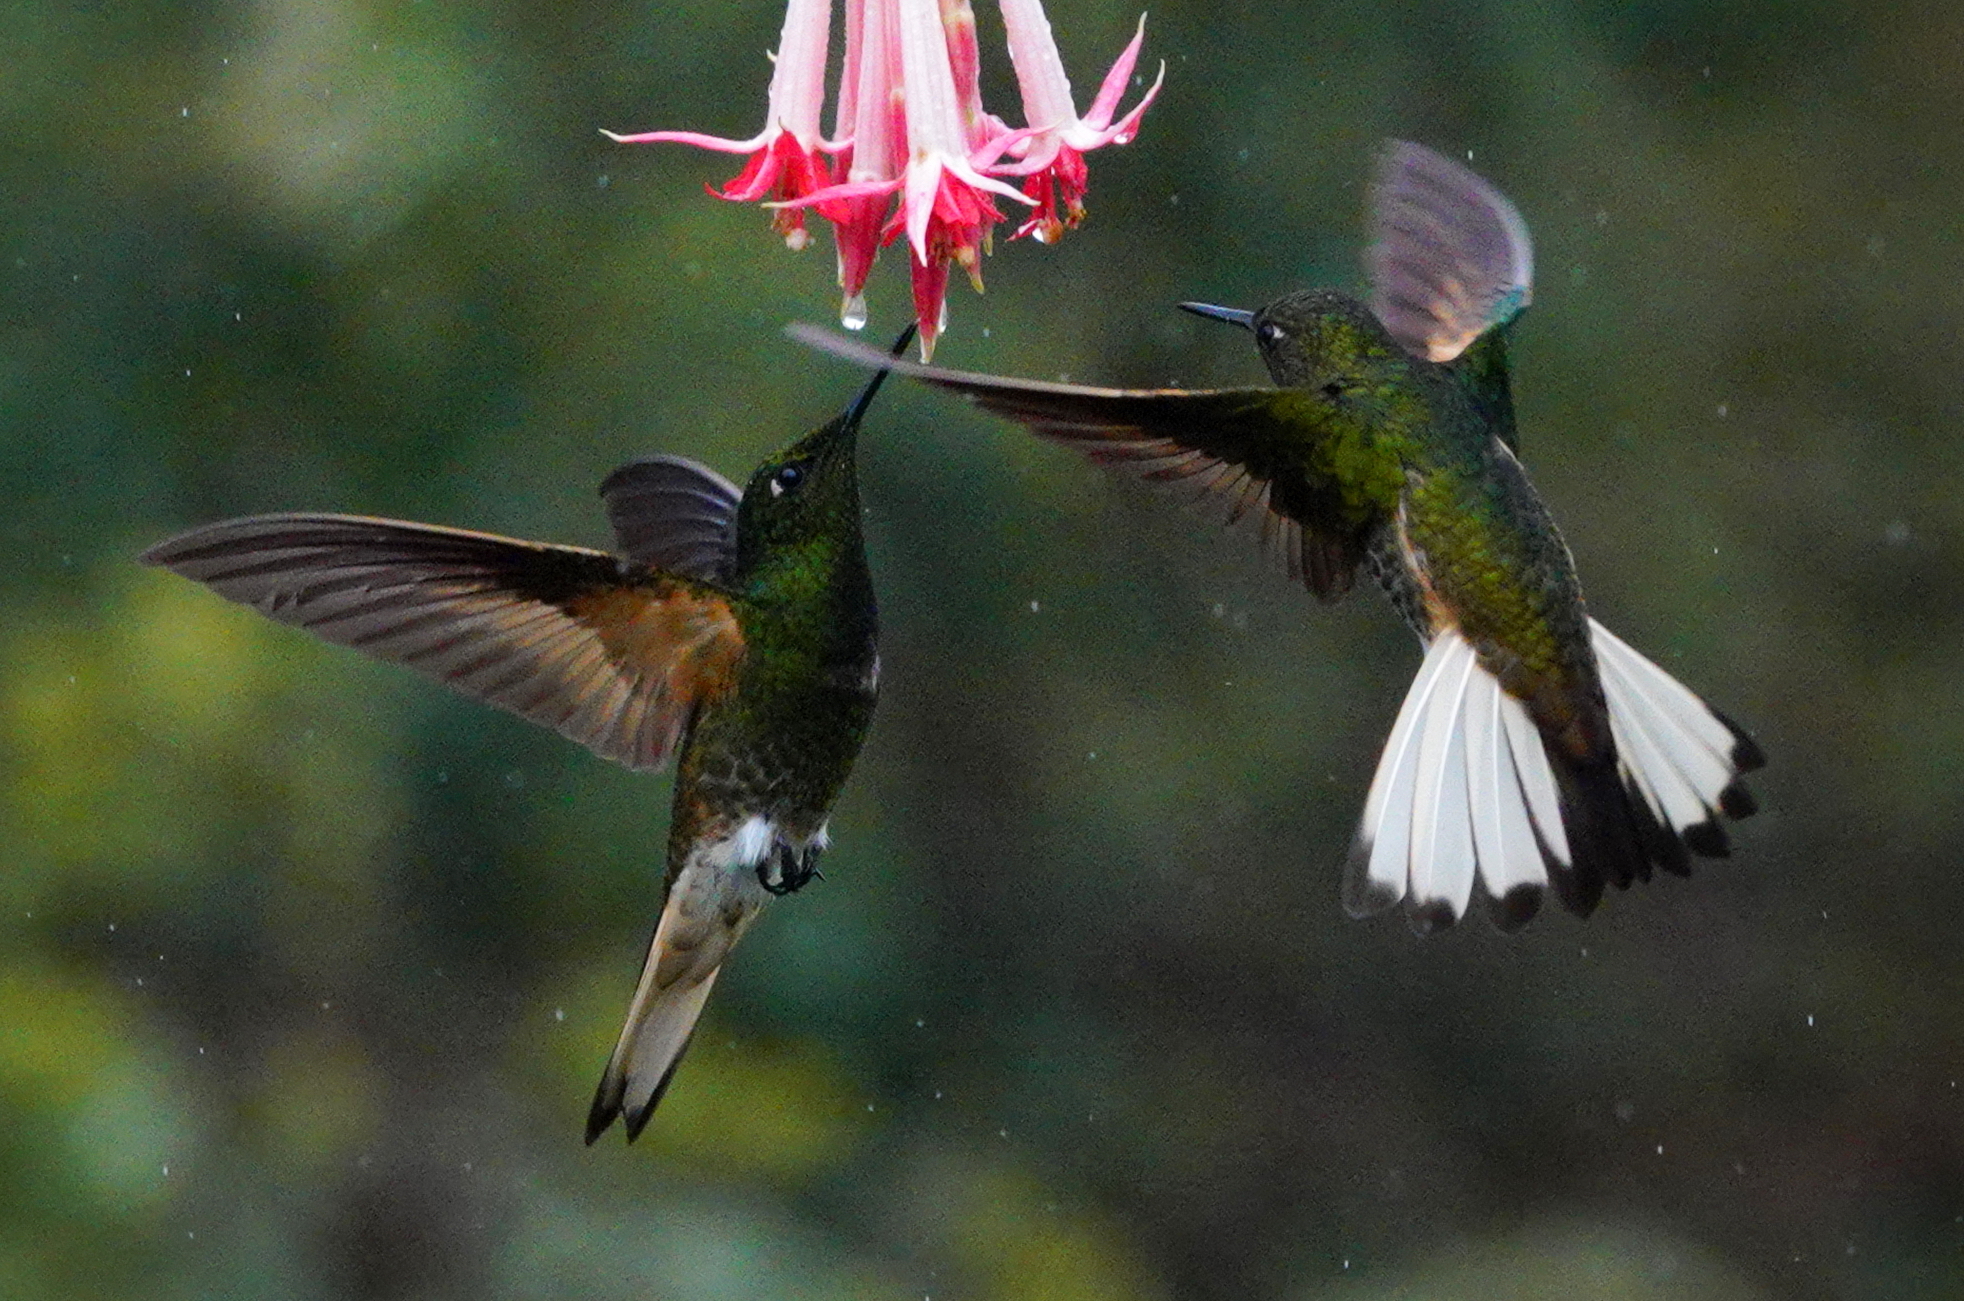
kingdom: Animalia
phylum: Chordata
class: Aves
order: Apodiformes
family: Trochilidae
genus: Boissonneaua
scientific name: Boissonneaua flavescens
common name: Buff-tailed coronet
